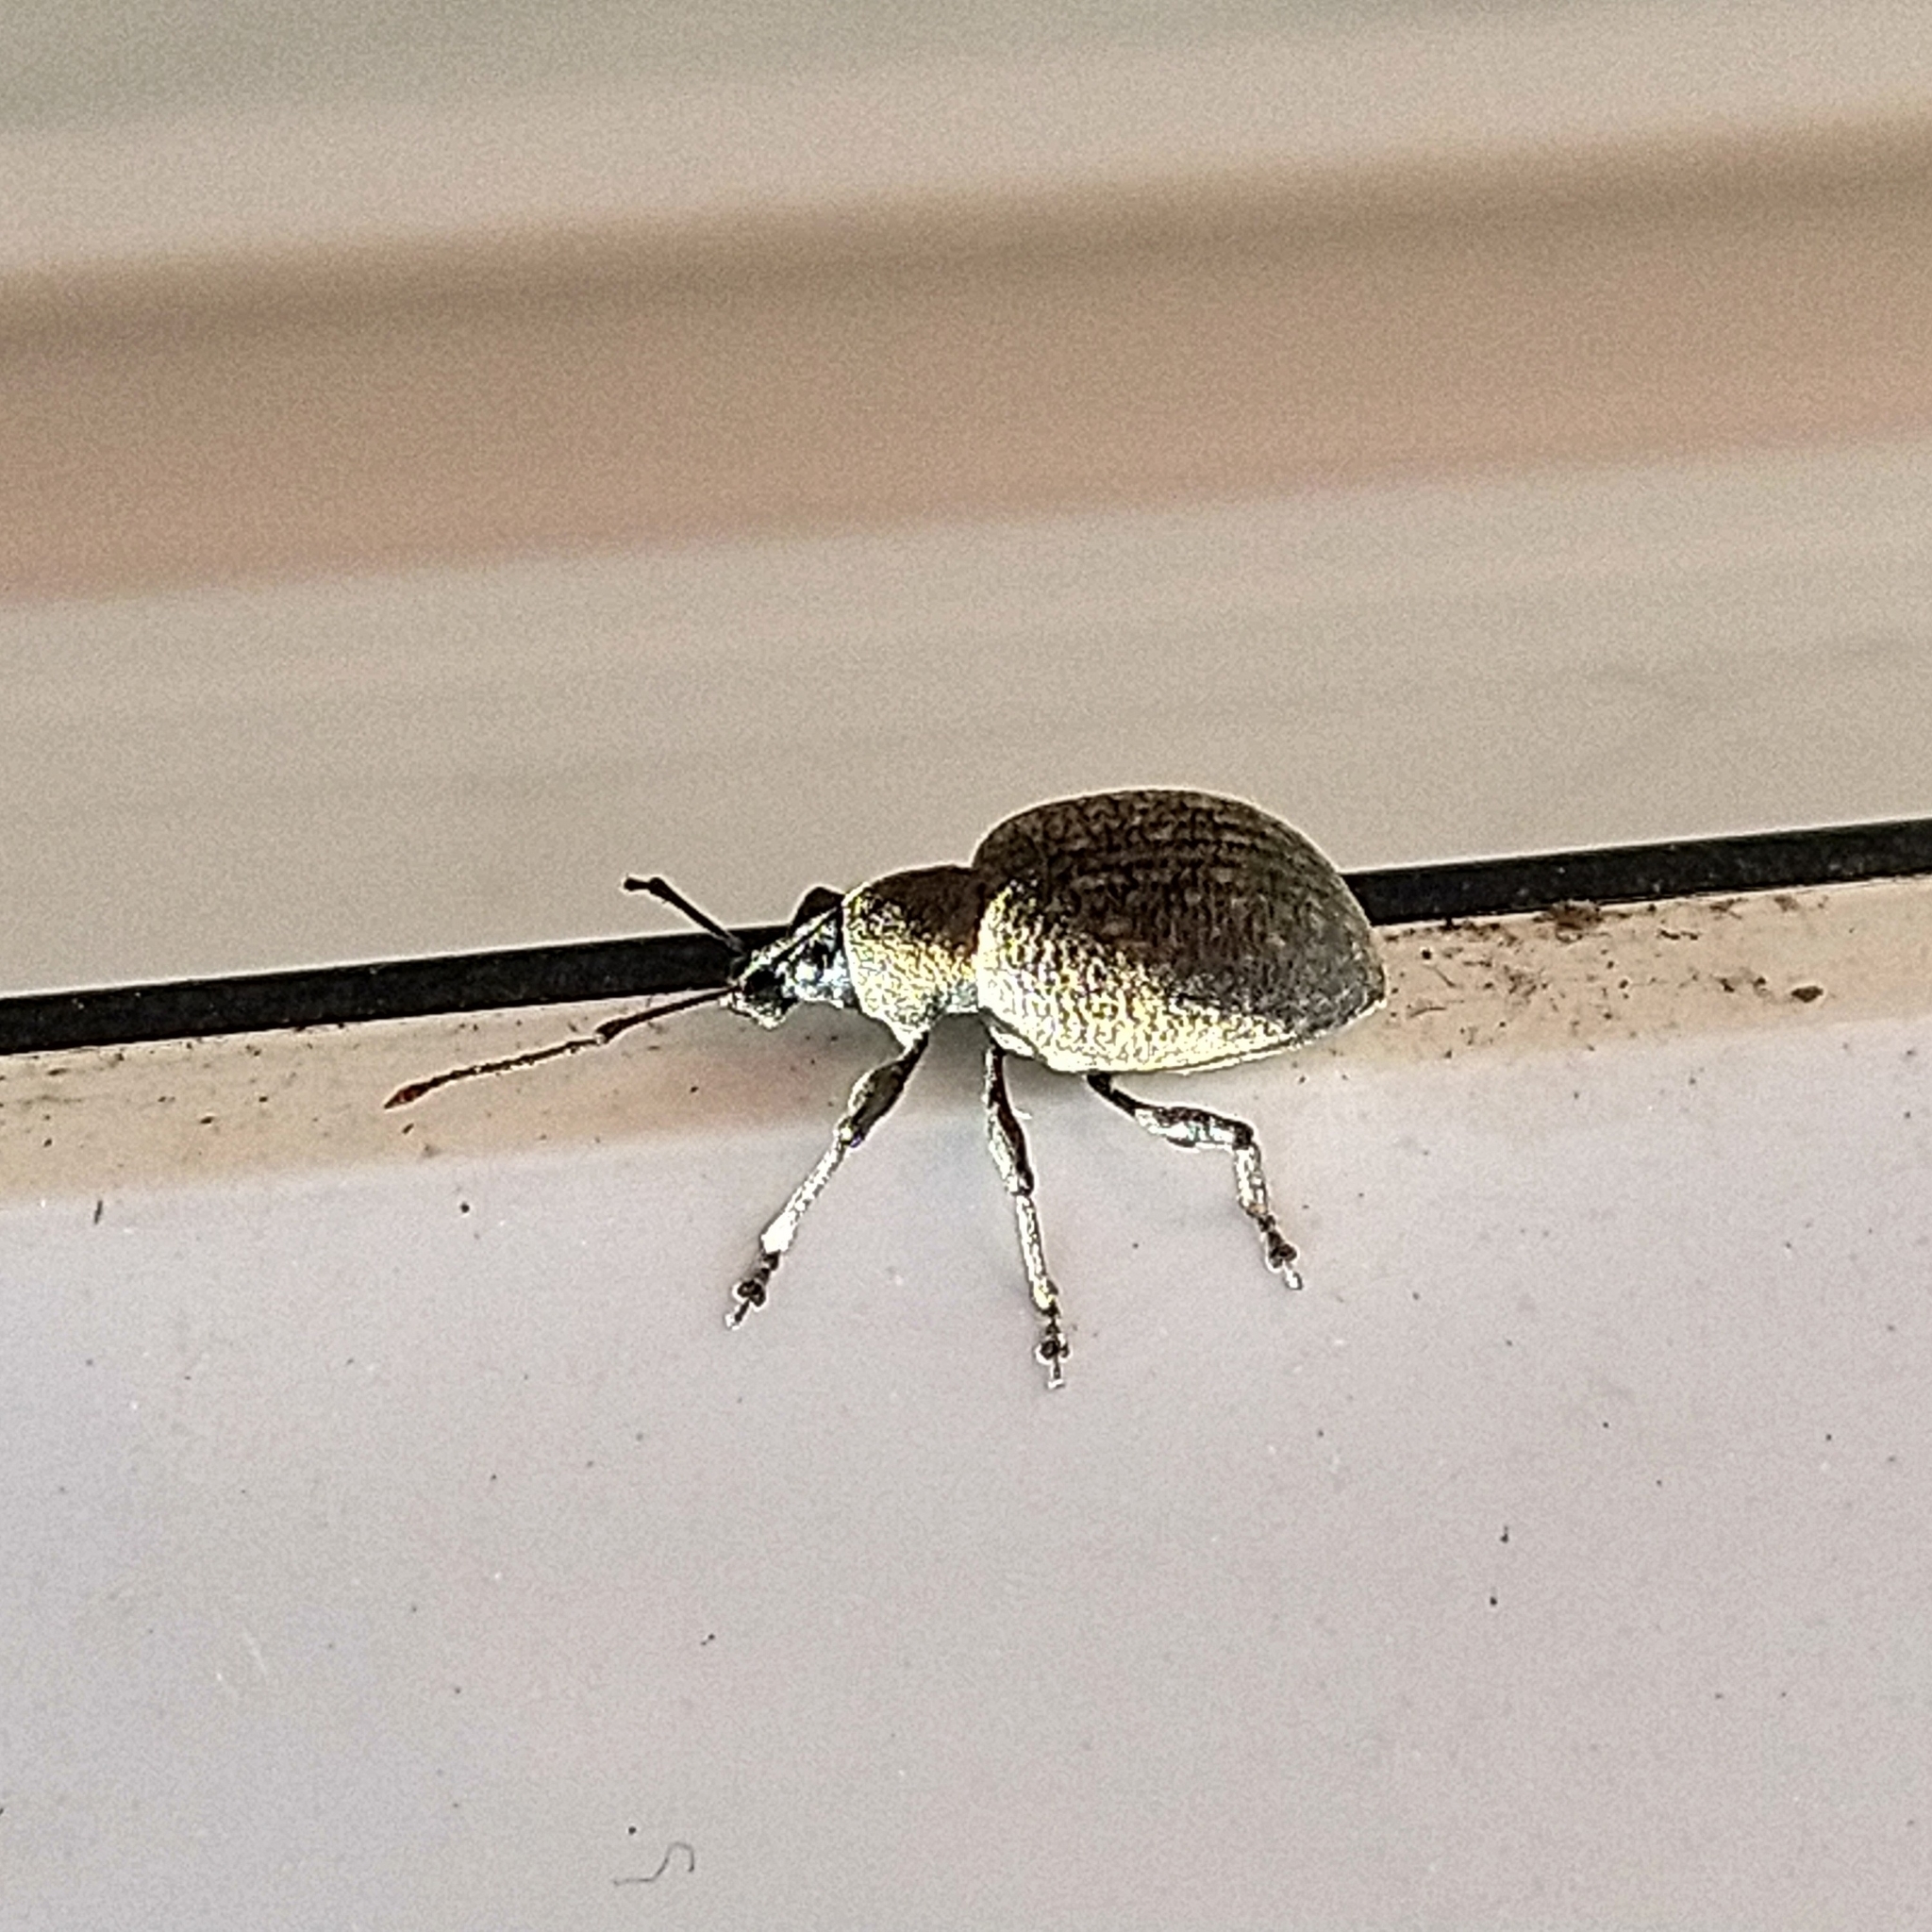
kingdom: Animalia
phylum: Arthropoda
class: Insecta
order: Coleoptera
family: Curculionidae
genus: Otiorhynchus
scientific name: Otiorhynchus armadillo
